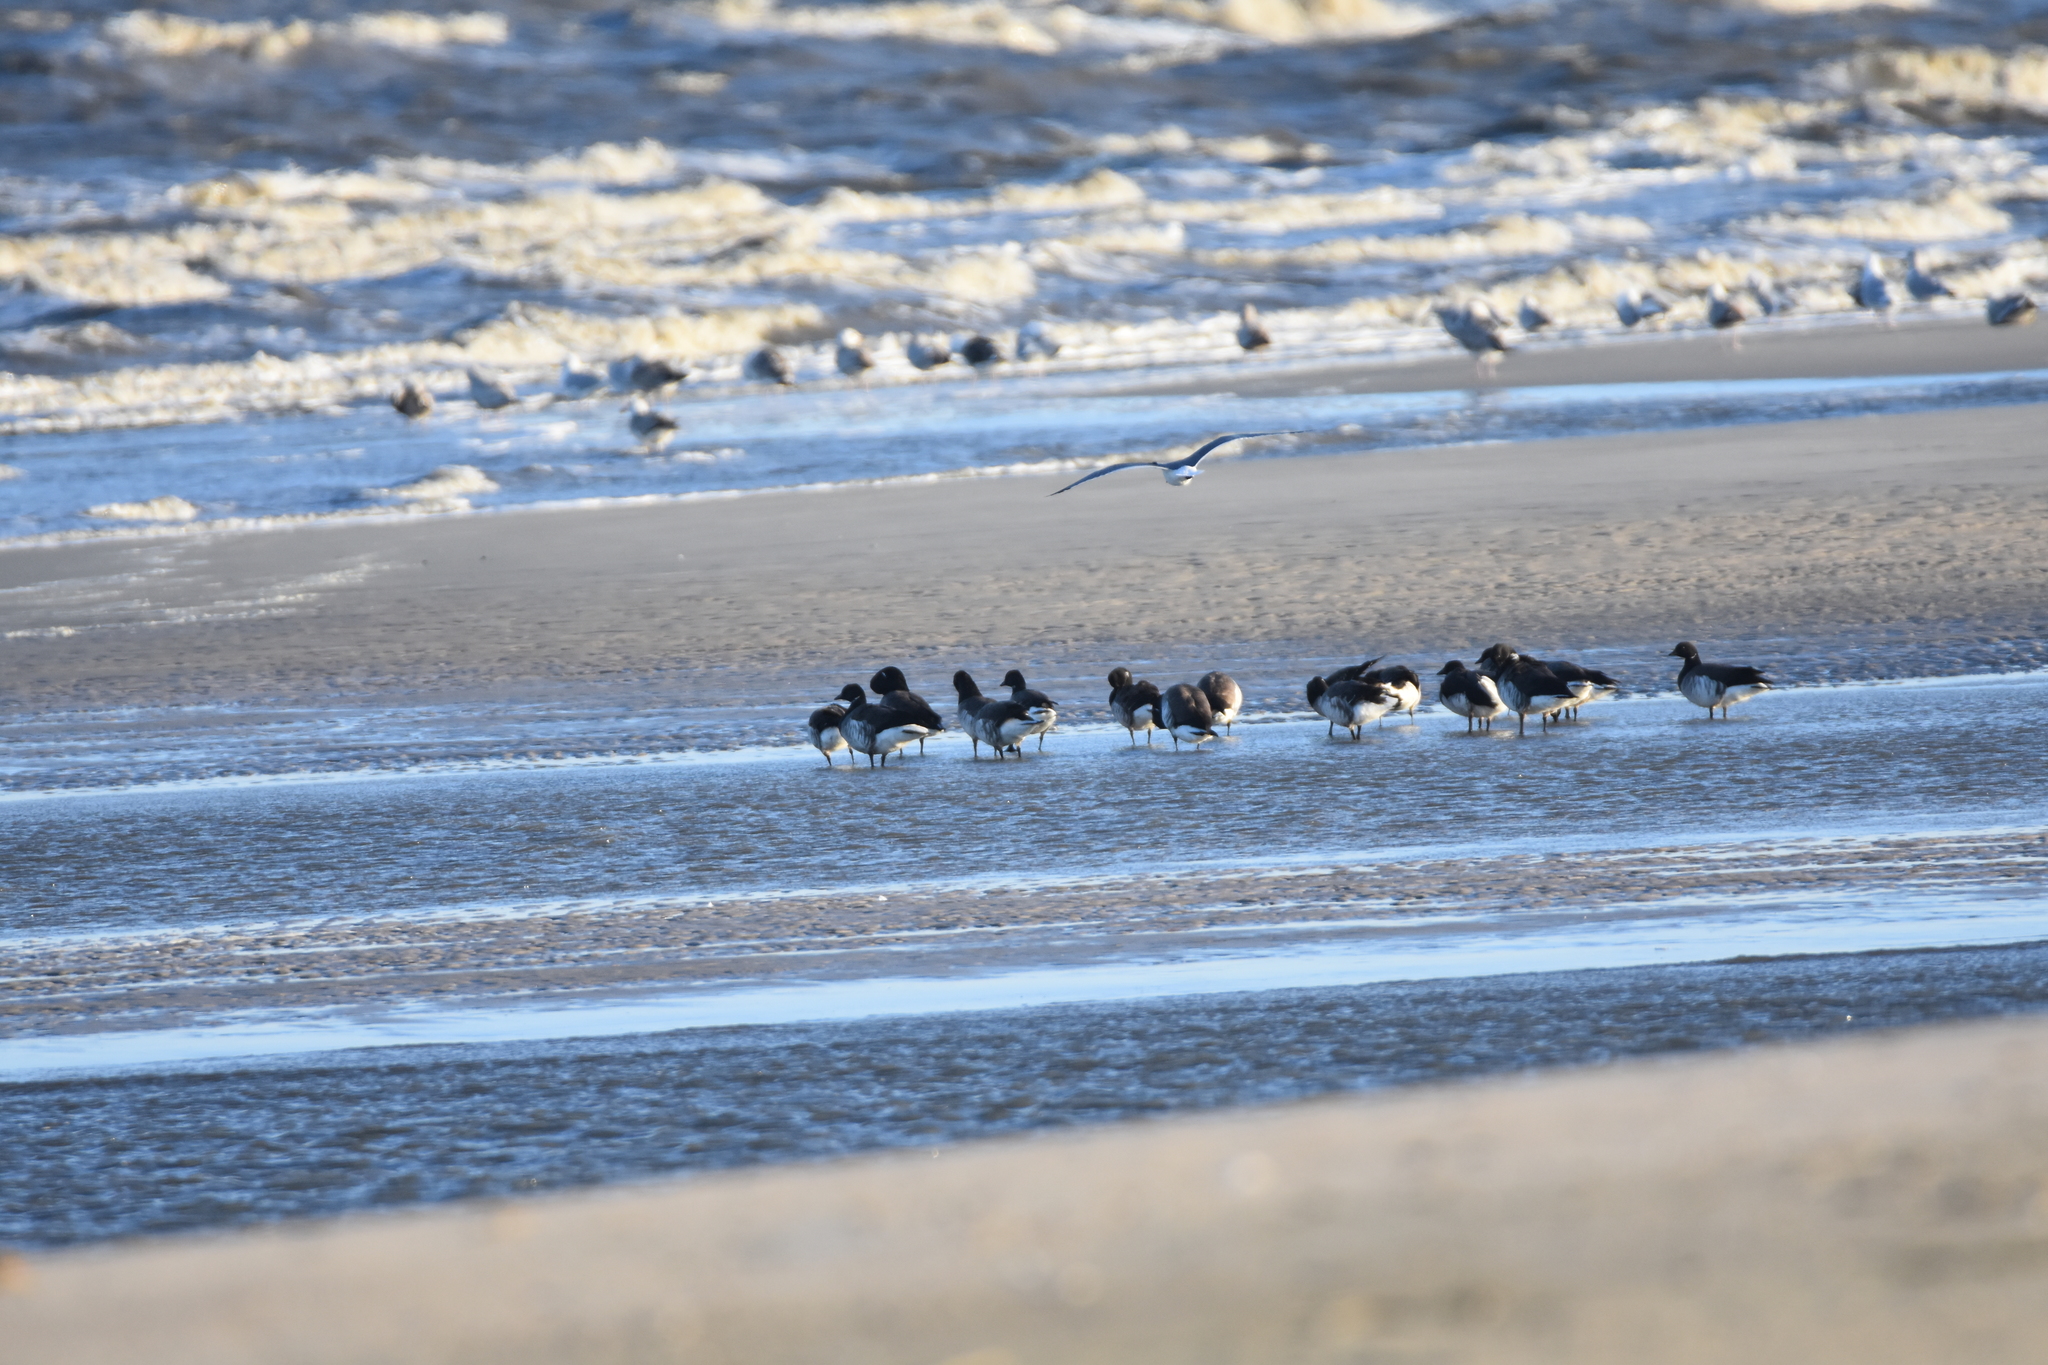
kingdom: Animalia
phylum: Chordata
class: Aves
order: Anseriformes
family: Anatidae
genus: Branta
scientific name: Branta bernicla
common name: Brant goose
